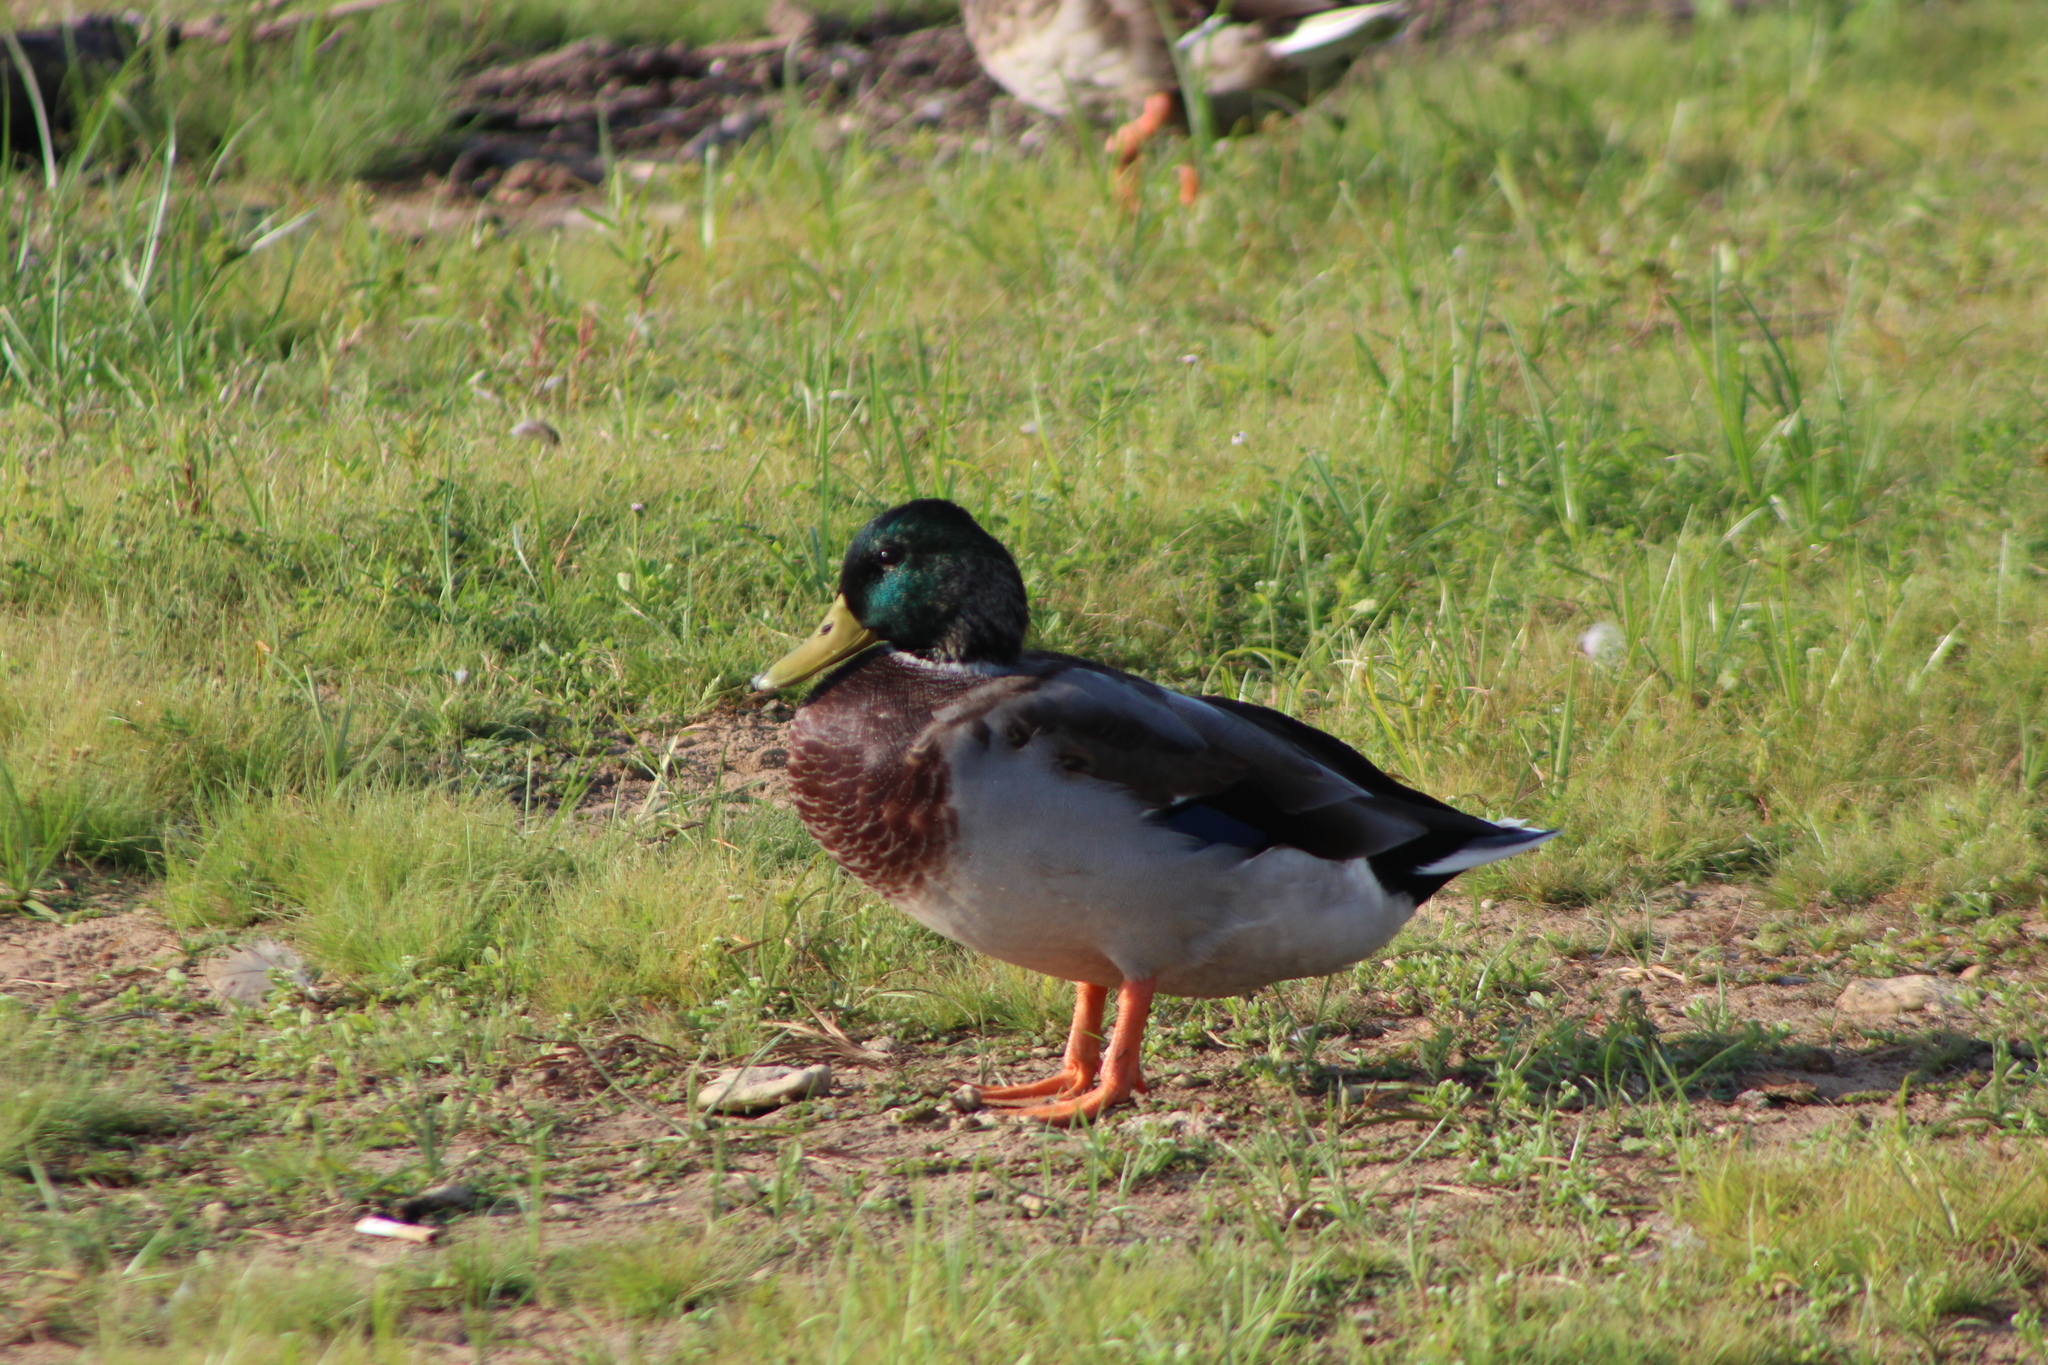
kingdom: Animalia
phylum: Chordata
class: Aves
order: Anseriformes
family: Anatidae
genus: Anas
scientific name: Anas platyrhynchos
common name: Mallard
